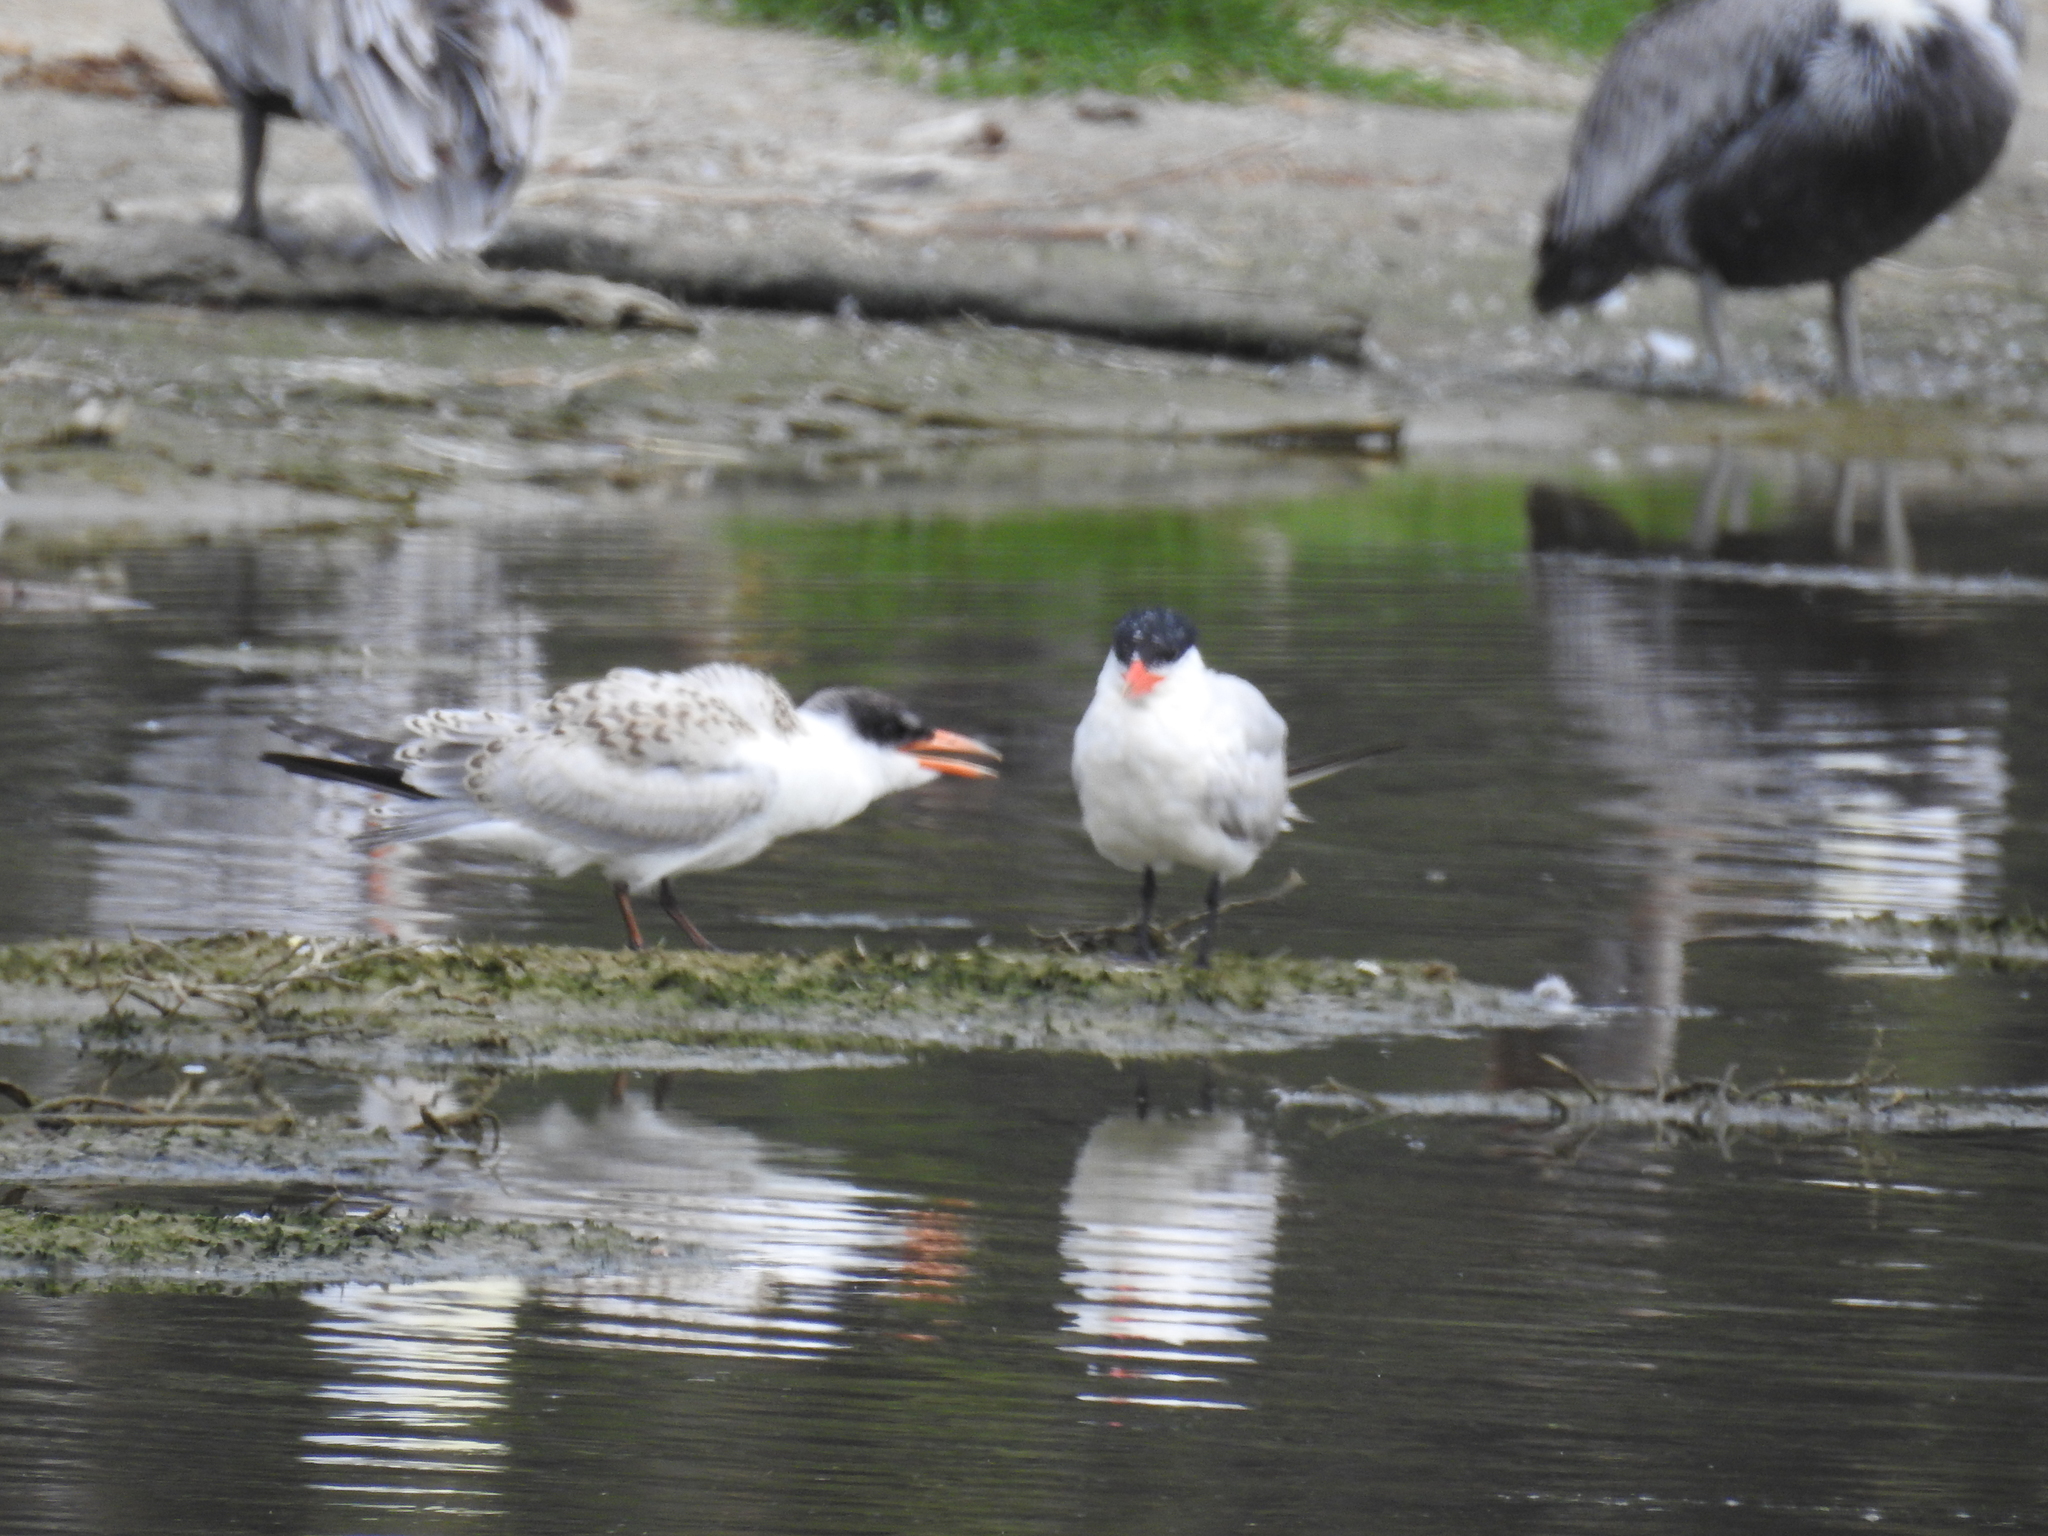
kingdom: Animalia
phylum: Chordata
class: Aves
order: Charadriiformes
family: Laridae
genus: Hydroprogne
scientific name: Hydroprogne caspia
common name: Caspian tern
